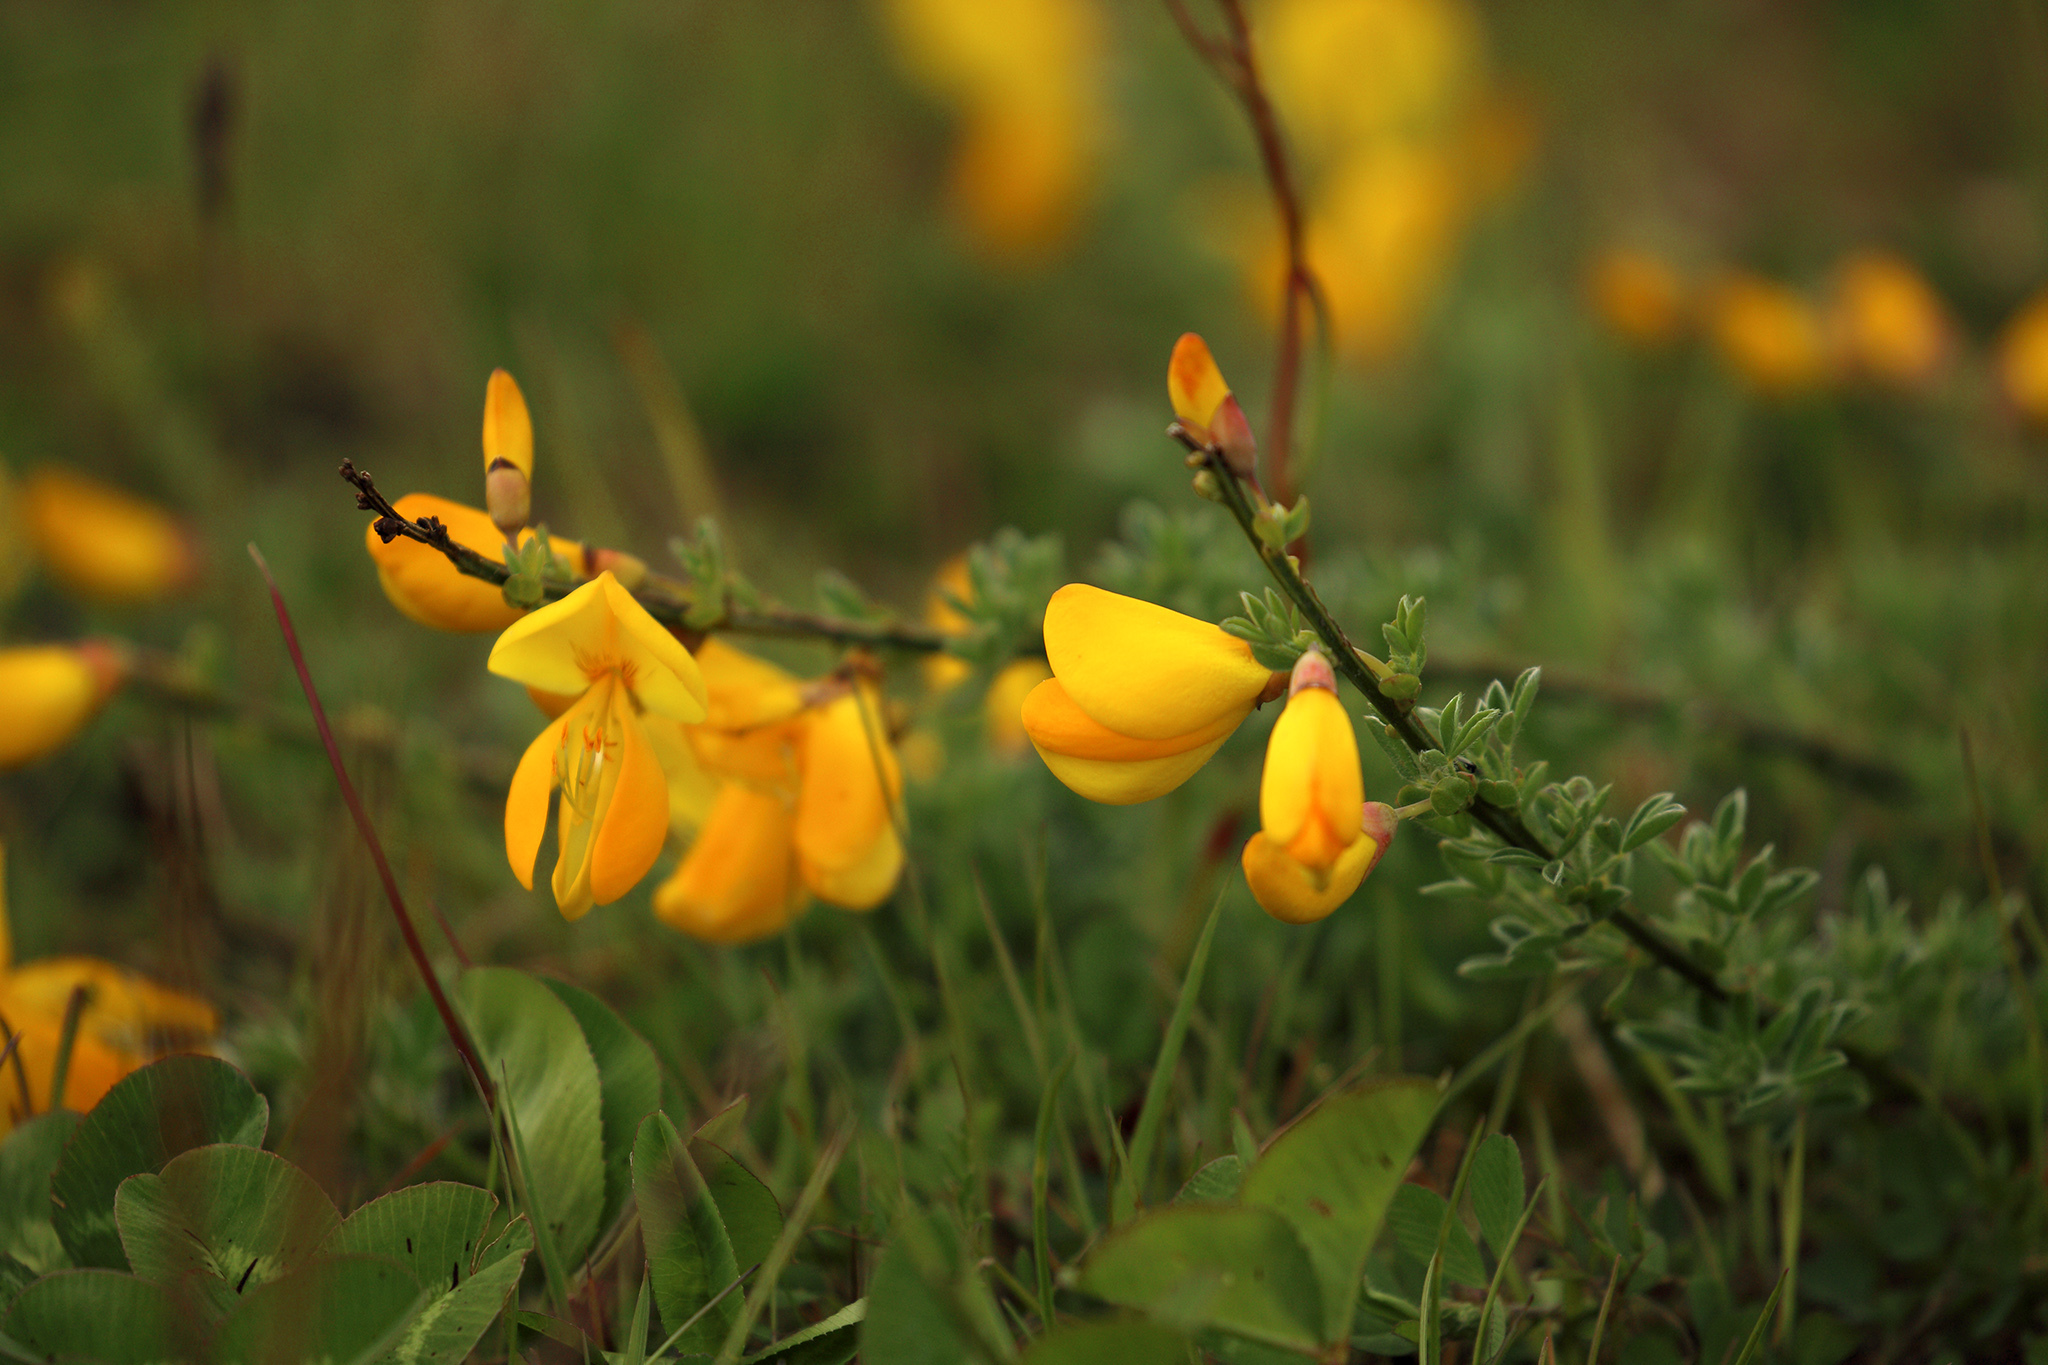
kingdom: Plantae
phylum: Tracheophyta
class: Magnoliopsida
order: Fabales
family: Fabaceae
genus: Lotus
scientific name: Lotus corniculatus
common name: Common bird's-foot-trefoil
